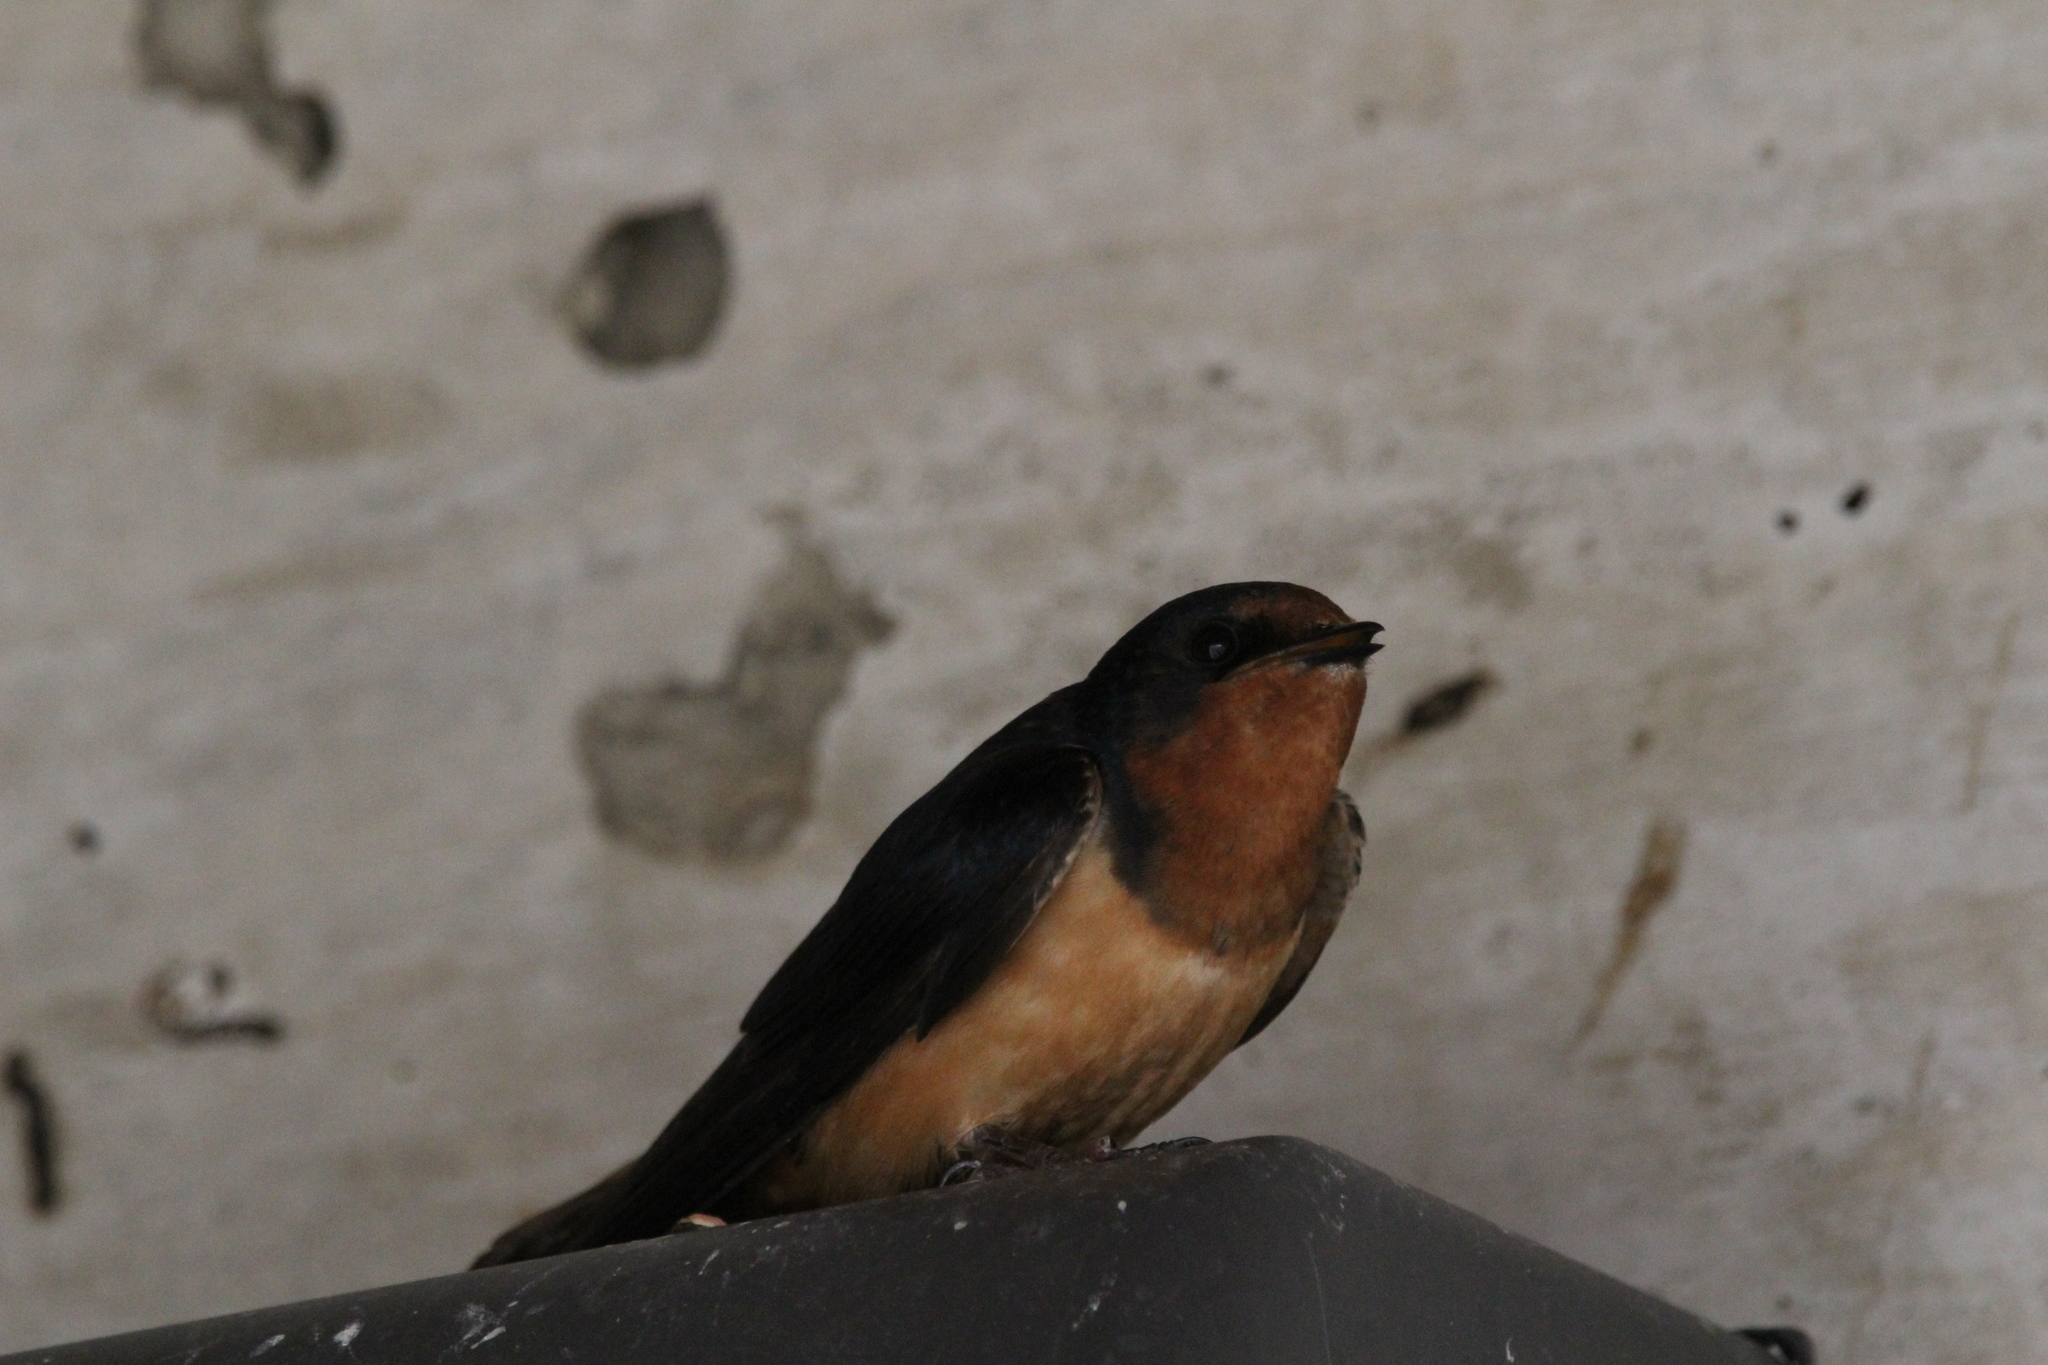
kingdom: Animalia
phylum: Chordata
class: Aves
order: Passeriformes
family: Hirundinidae
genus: Hirundo
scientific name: Hirundo rustica
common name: Barn swallow
